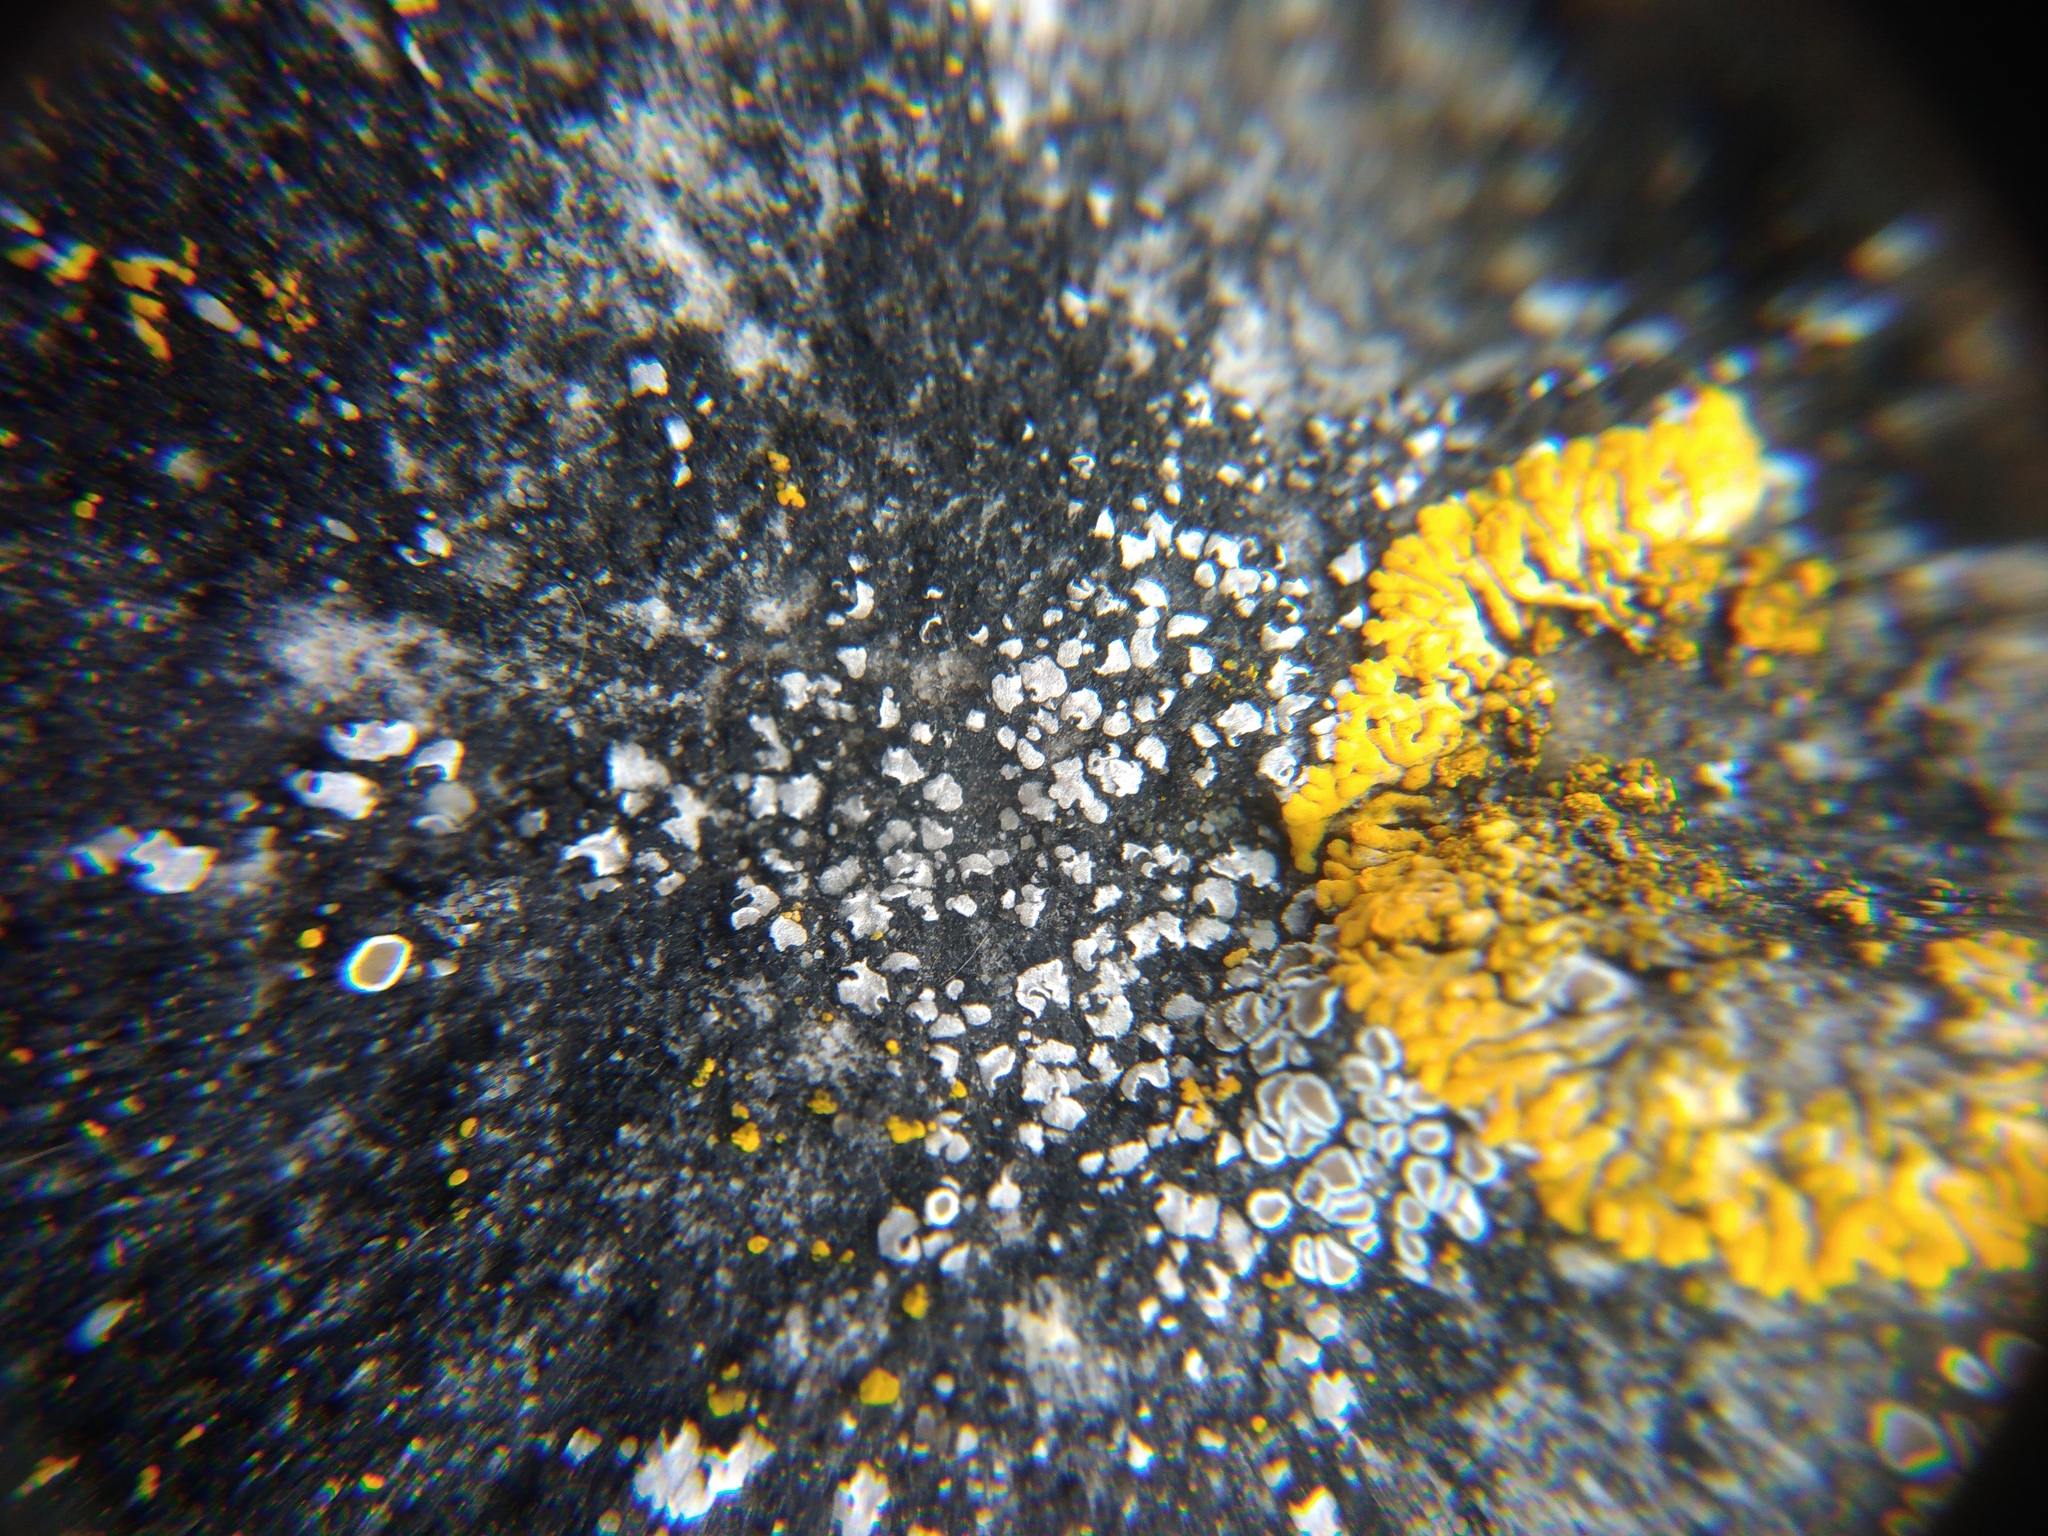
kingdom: Fungi
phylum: Ascomycota
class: Lecanoromycetes
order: Acarosporales
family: Acarosporaceae
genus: Acarospora
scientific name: Acarospora moenium
